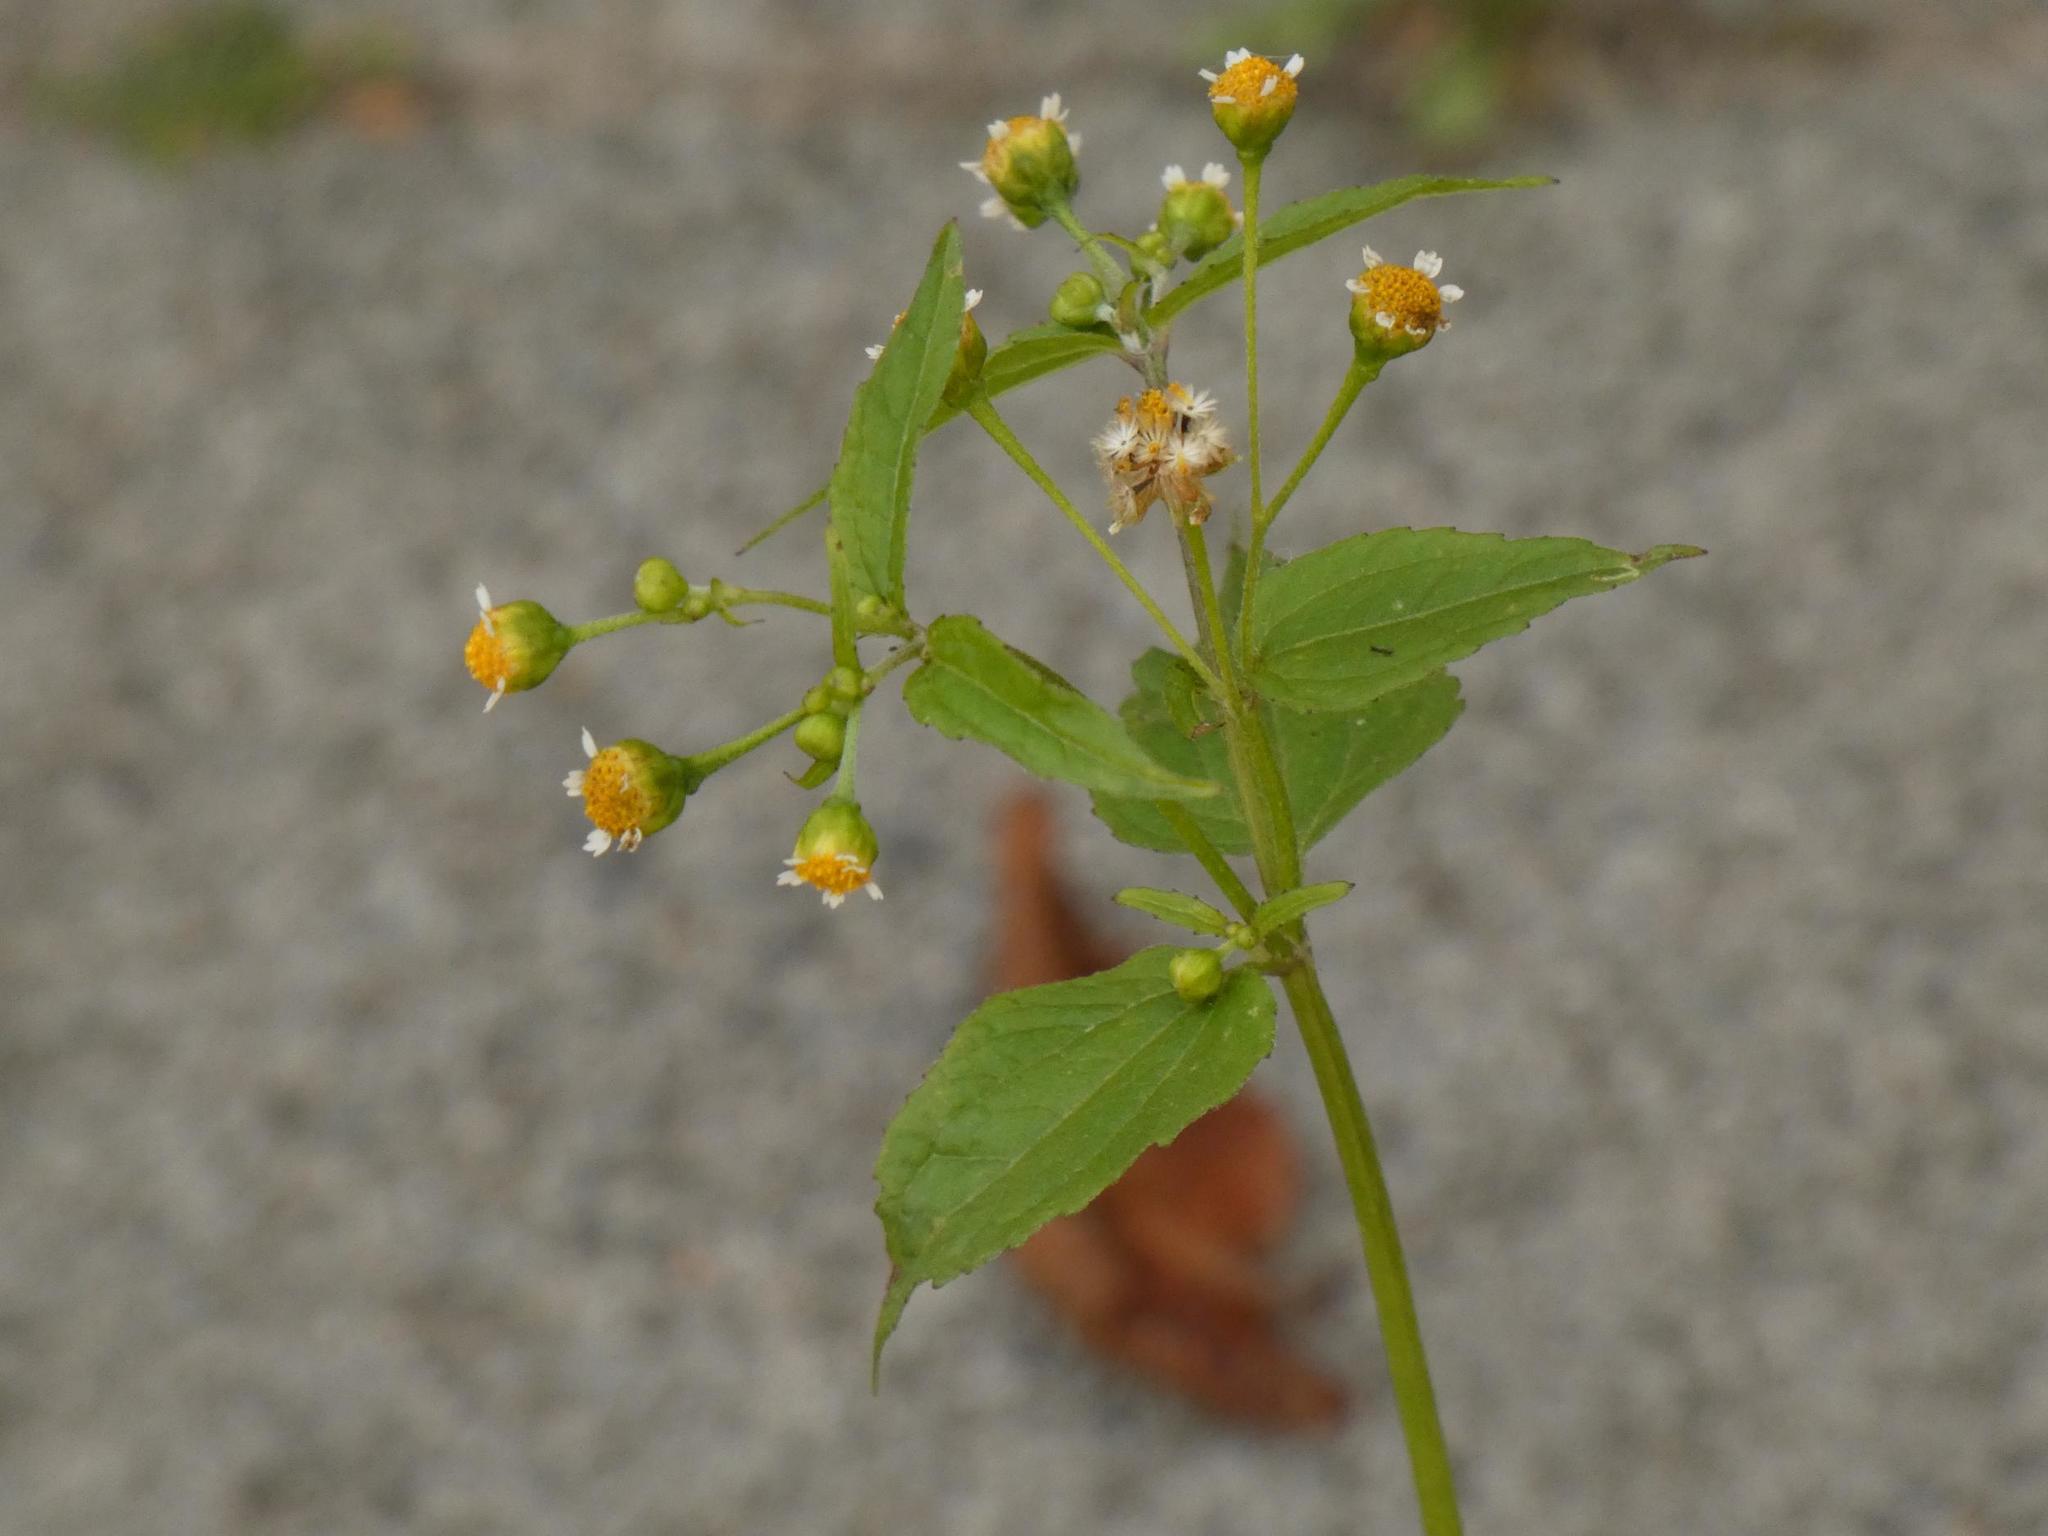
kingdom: Plantae
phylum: Tracheophyta
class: Magnoliopsida
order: Asterales
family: Asteraceae
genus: Galinsoga
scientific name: Galinsoga parviflora
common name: Gallant soldier
